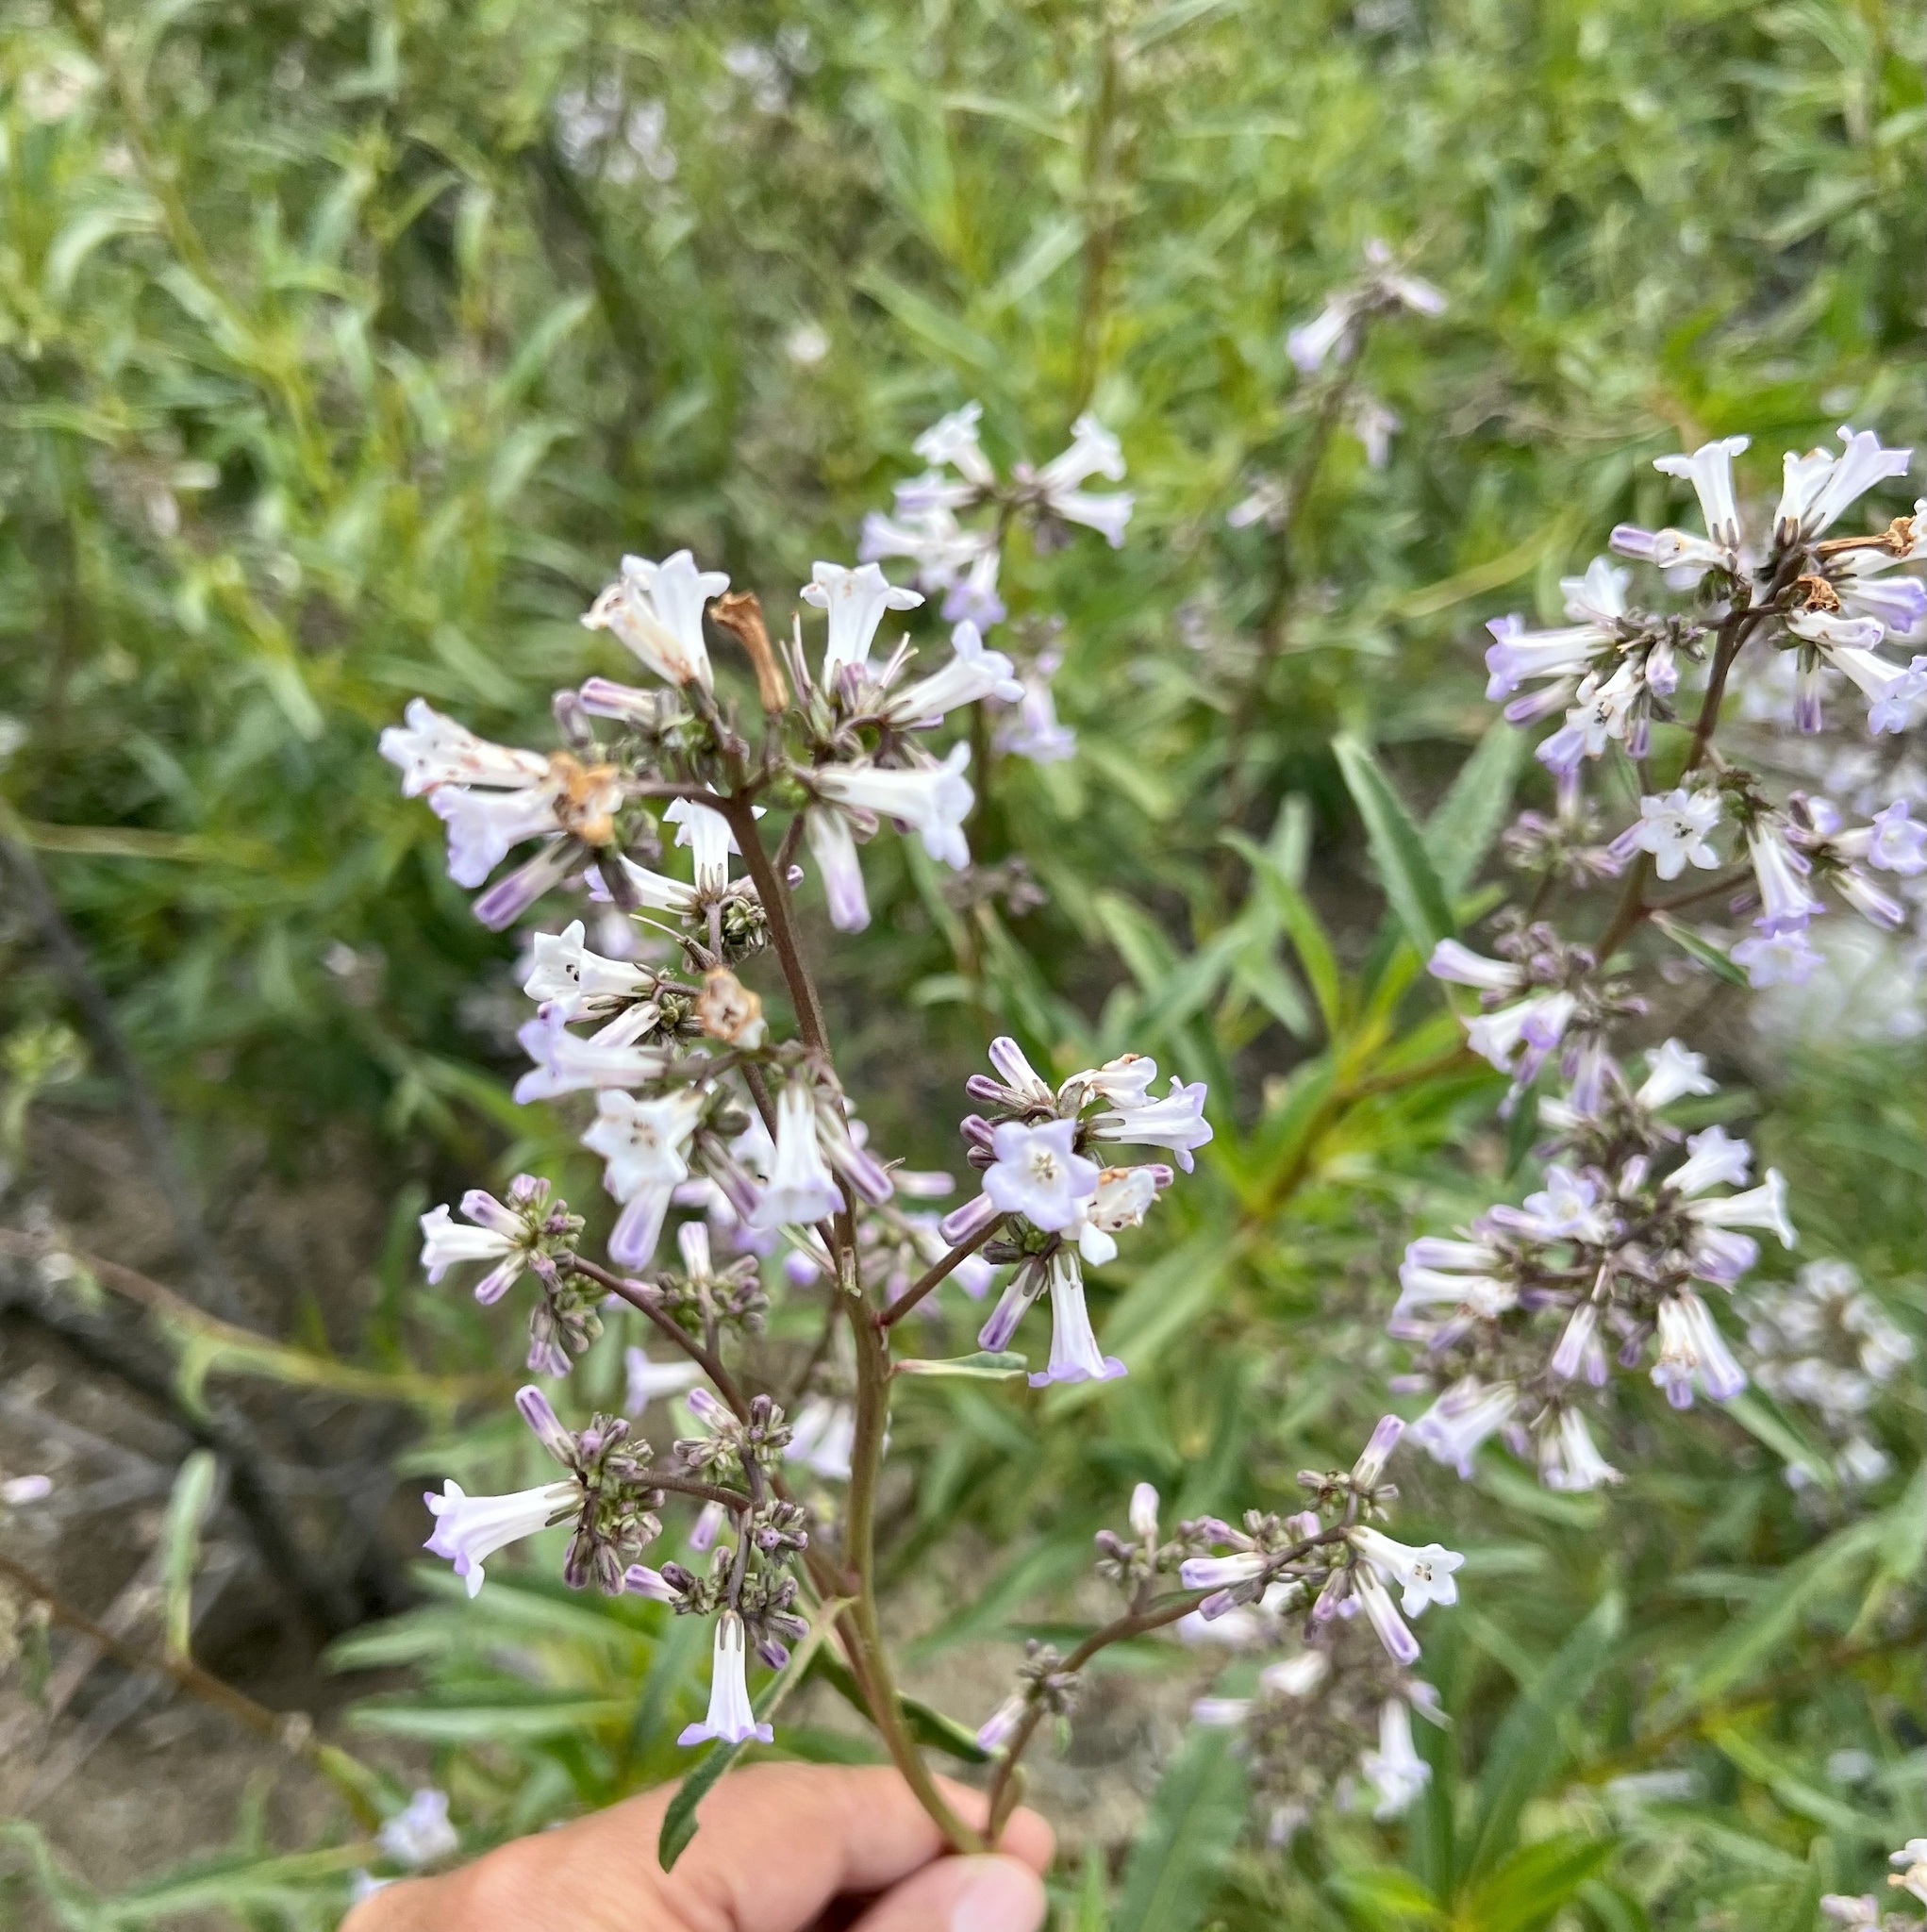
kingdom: Plantae
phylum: Tracheophyta
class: Magnoliopsida
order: Boraginales
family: Namaceae
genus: Eriodictyon
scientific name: Eriodictyon californicum
